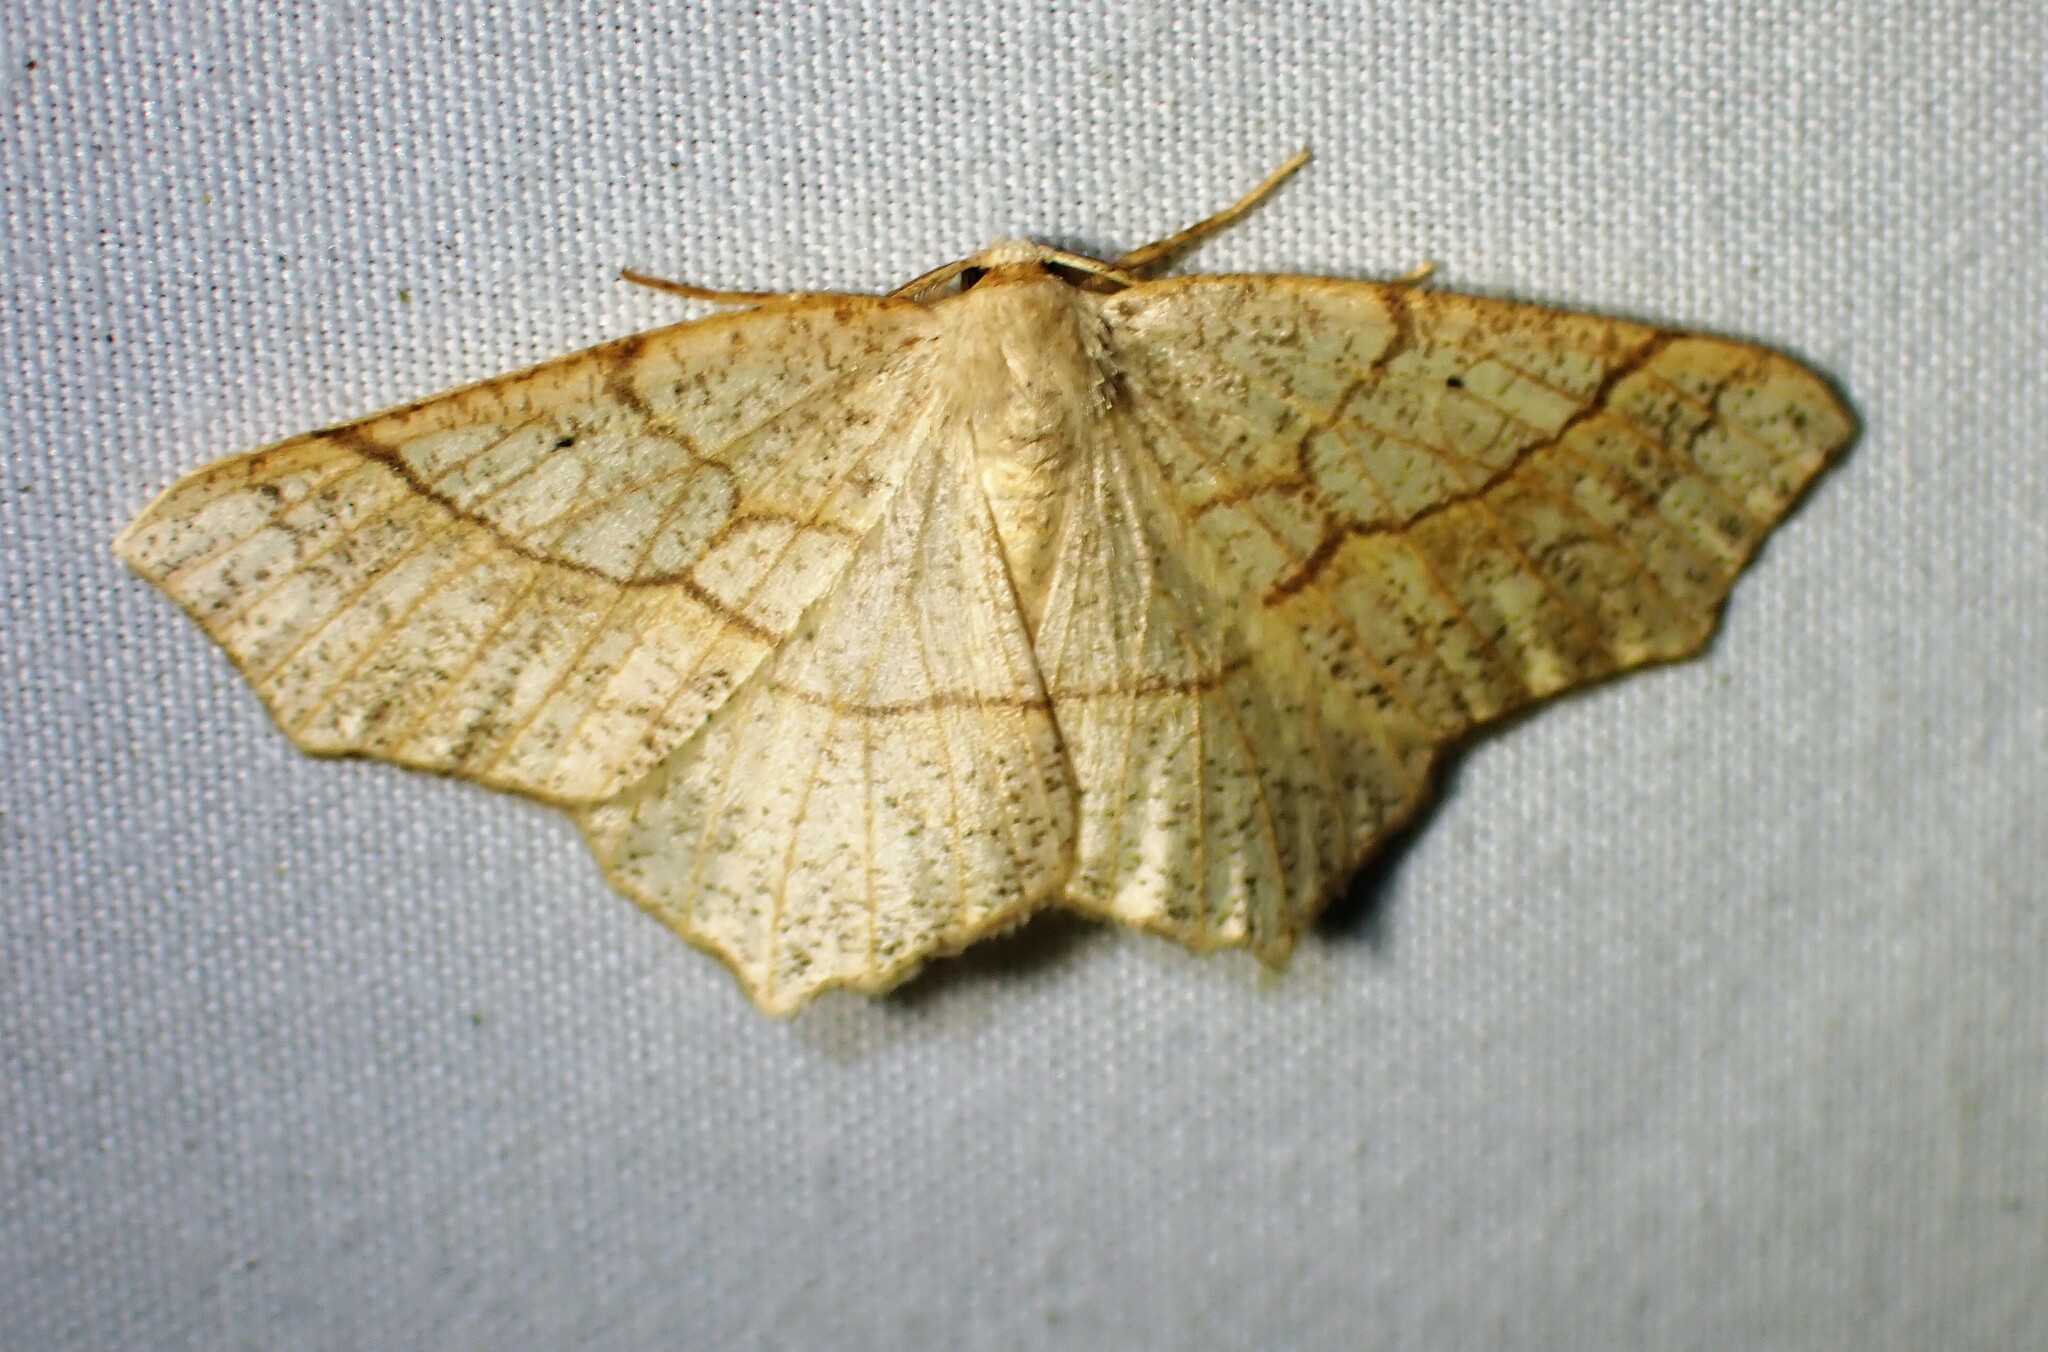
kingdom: Animalia
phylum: Arthropoda
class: Insecta
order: Lepidoptera
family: Geometridae
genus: Besma
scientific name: Besma quercivoraria
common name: Oak besma
